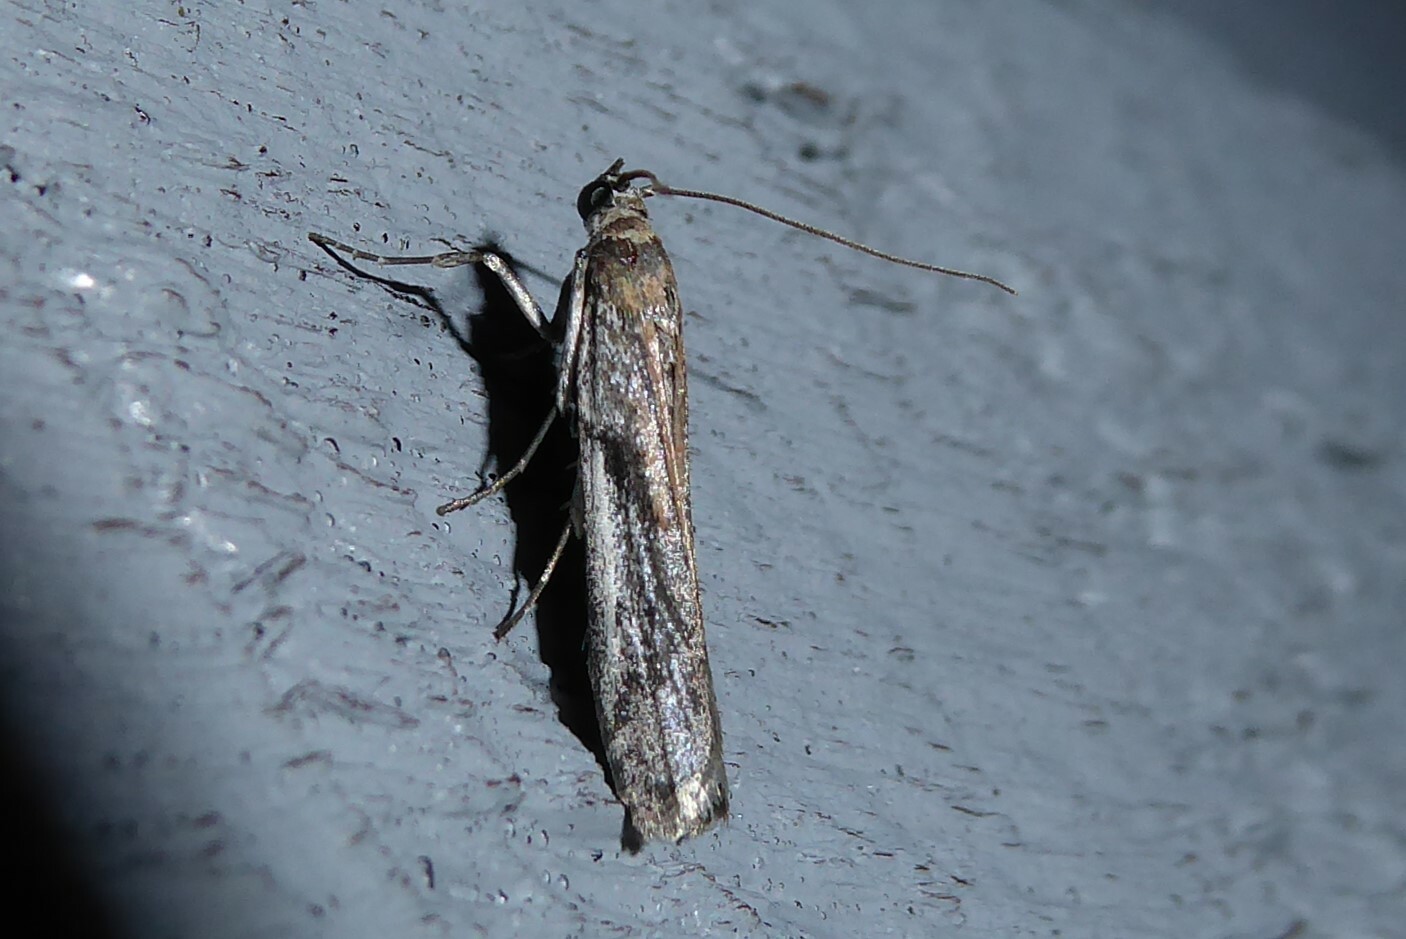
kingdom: Animalia
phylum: Arthropoda
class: Insecta
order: Lepidoptera
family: Pyralidae
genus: Patagoniodes
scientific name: Patagoniodes farinaria
